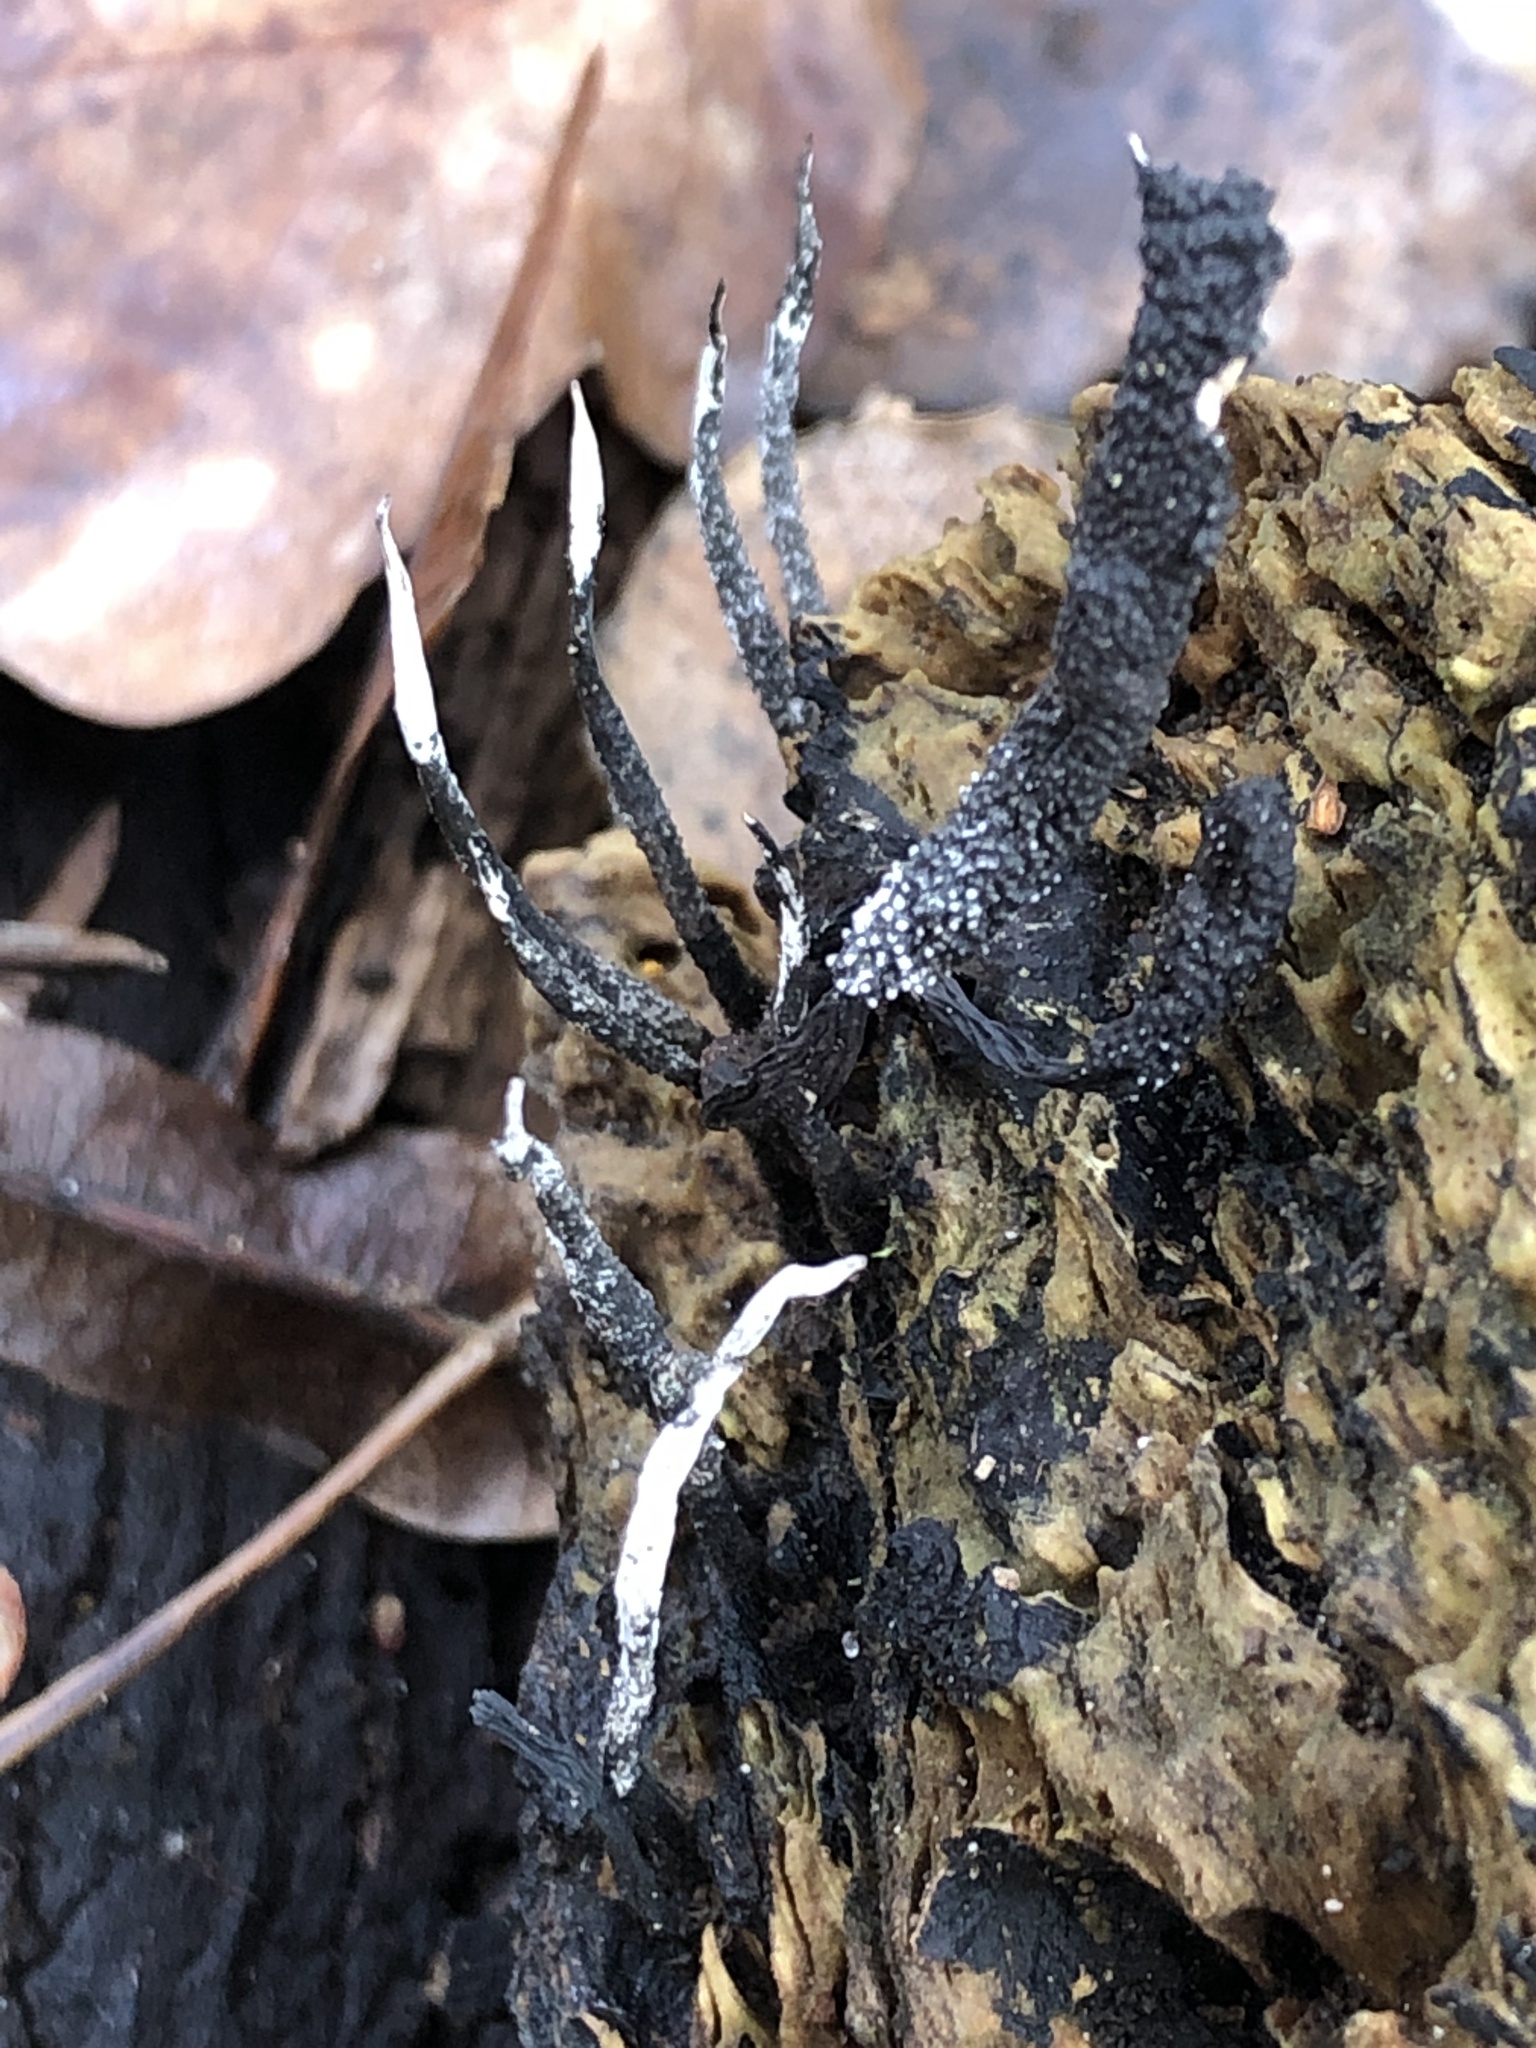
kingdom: Fungi
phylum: Ascomycota
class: Sordariomycetes
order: Xylariales
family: Xylariaceae
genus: Xylaria
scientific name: Xylaria hypoxylon
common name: Candle-snuff fungus
